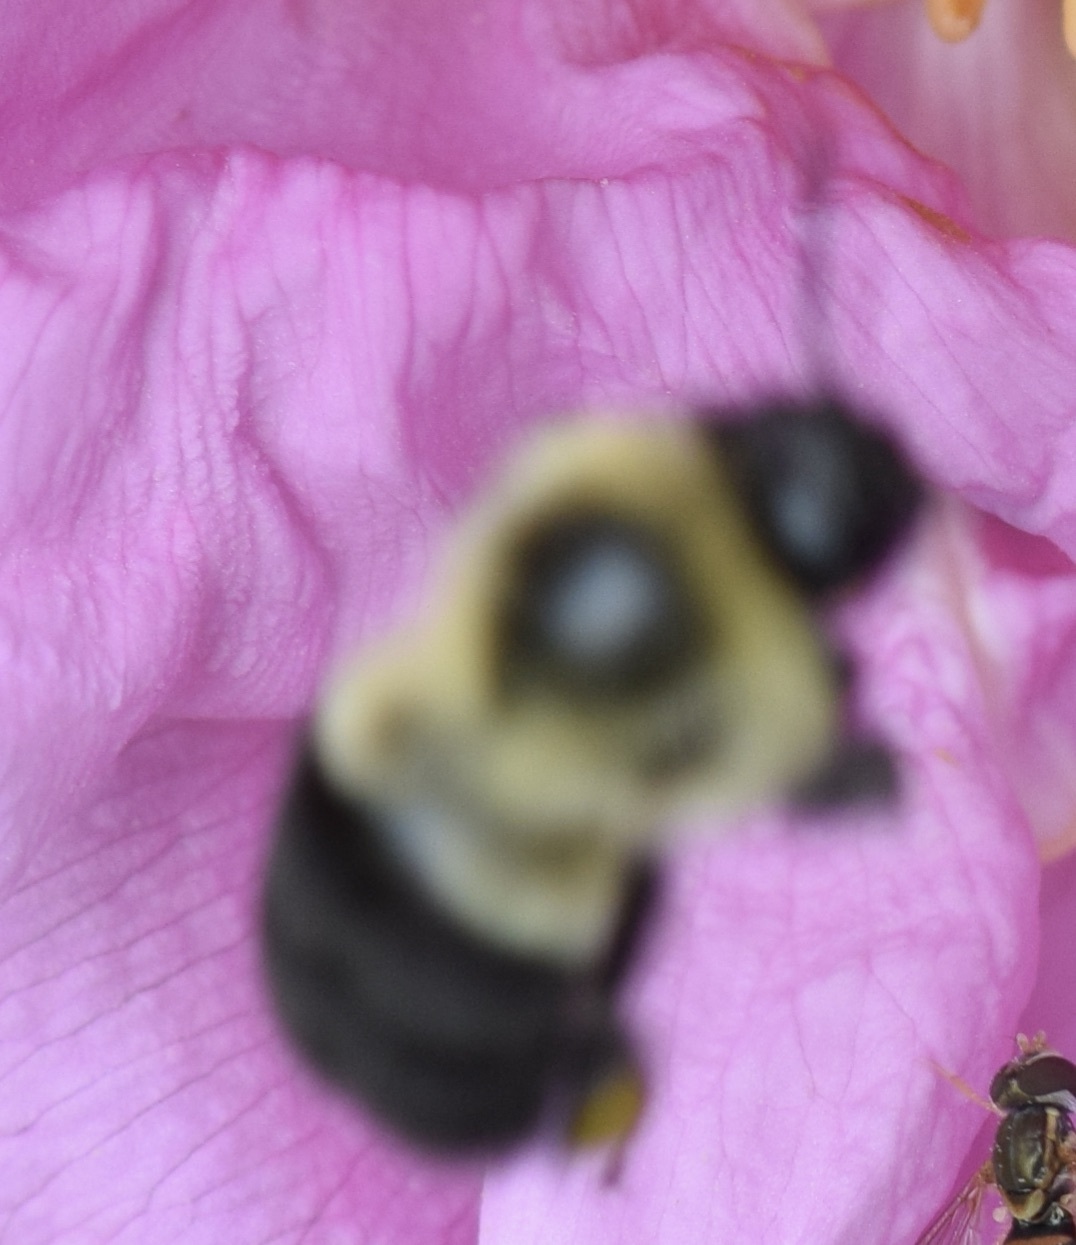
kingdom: Animalia
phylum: Arthropoda
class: Insecta
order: Hymenoptera
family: Apidae
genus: Bombus
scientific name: Bombus impatiens
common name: Common eastern bumble bee
